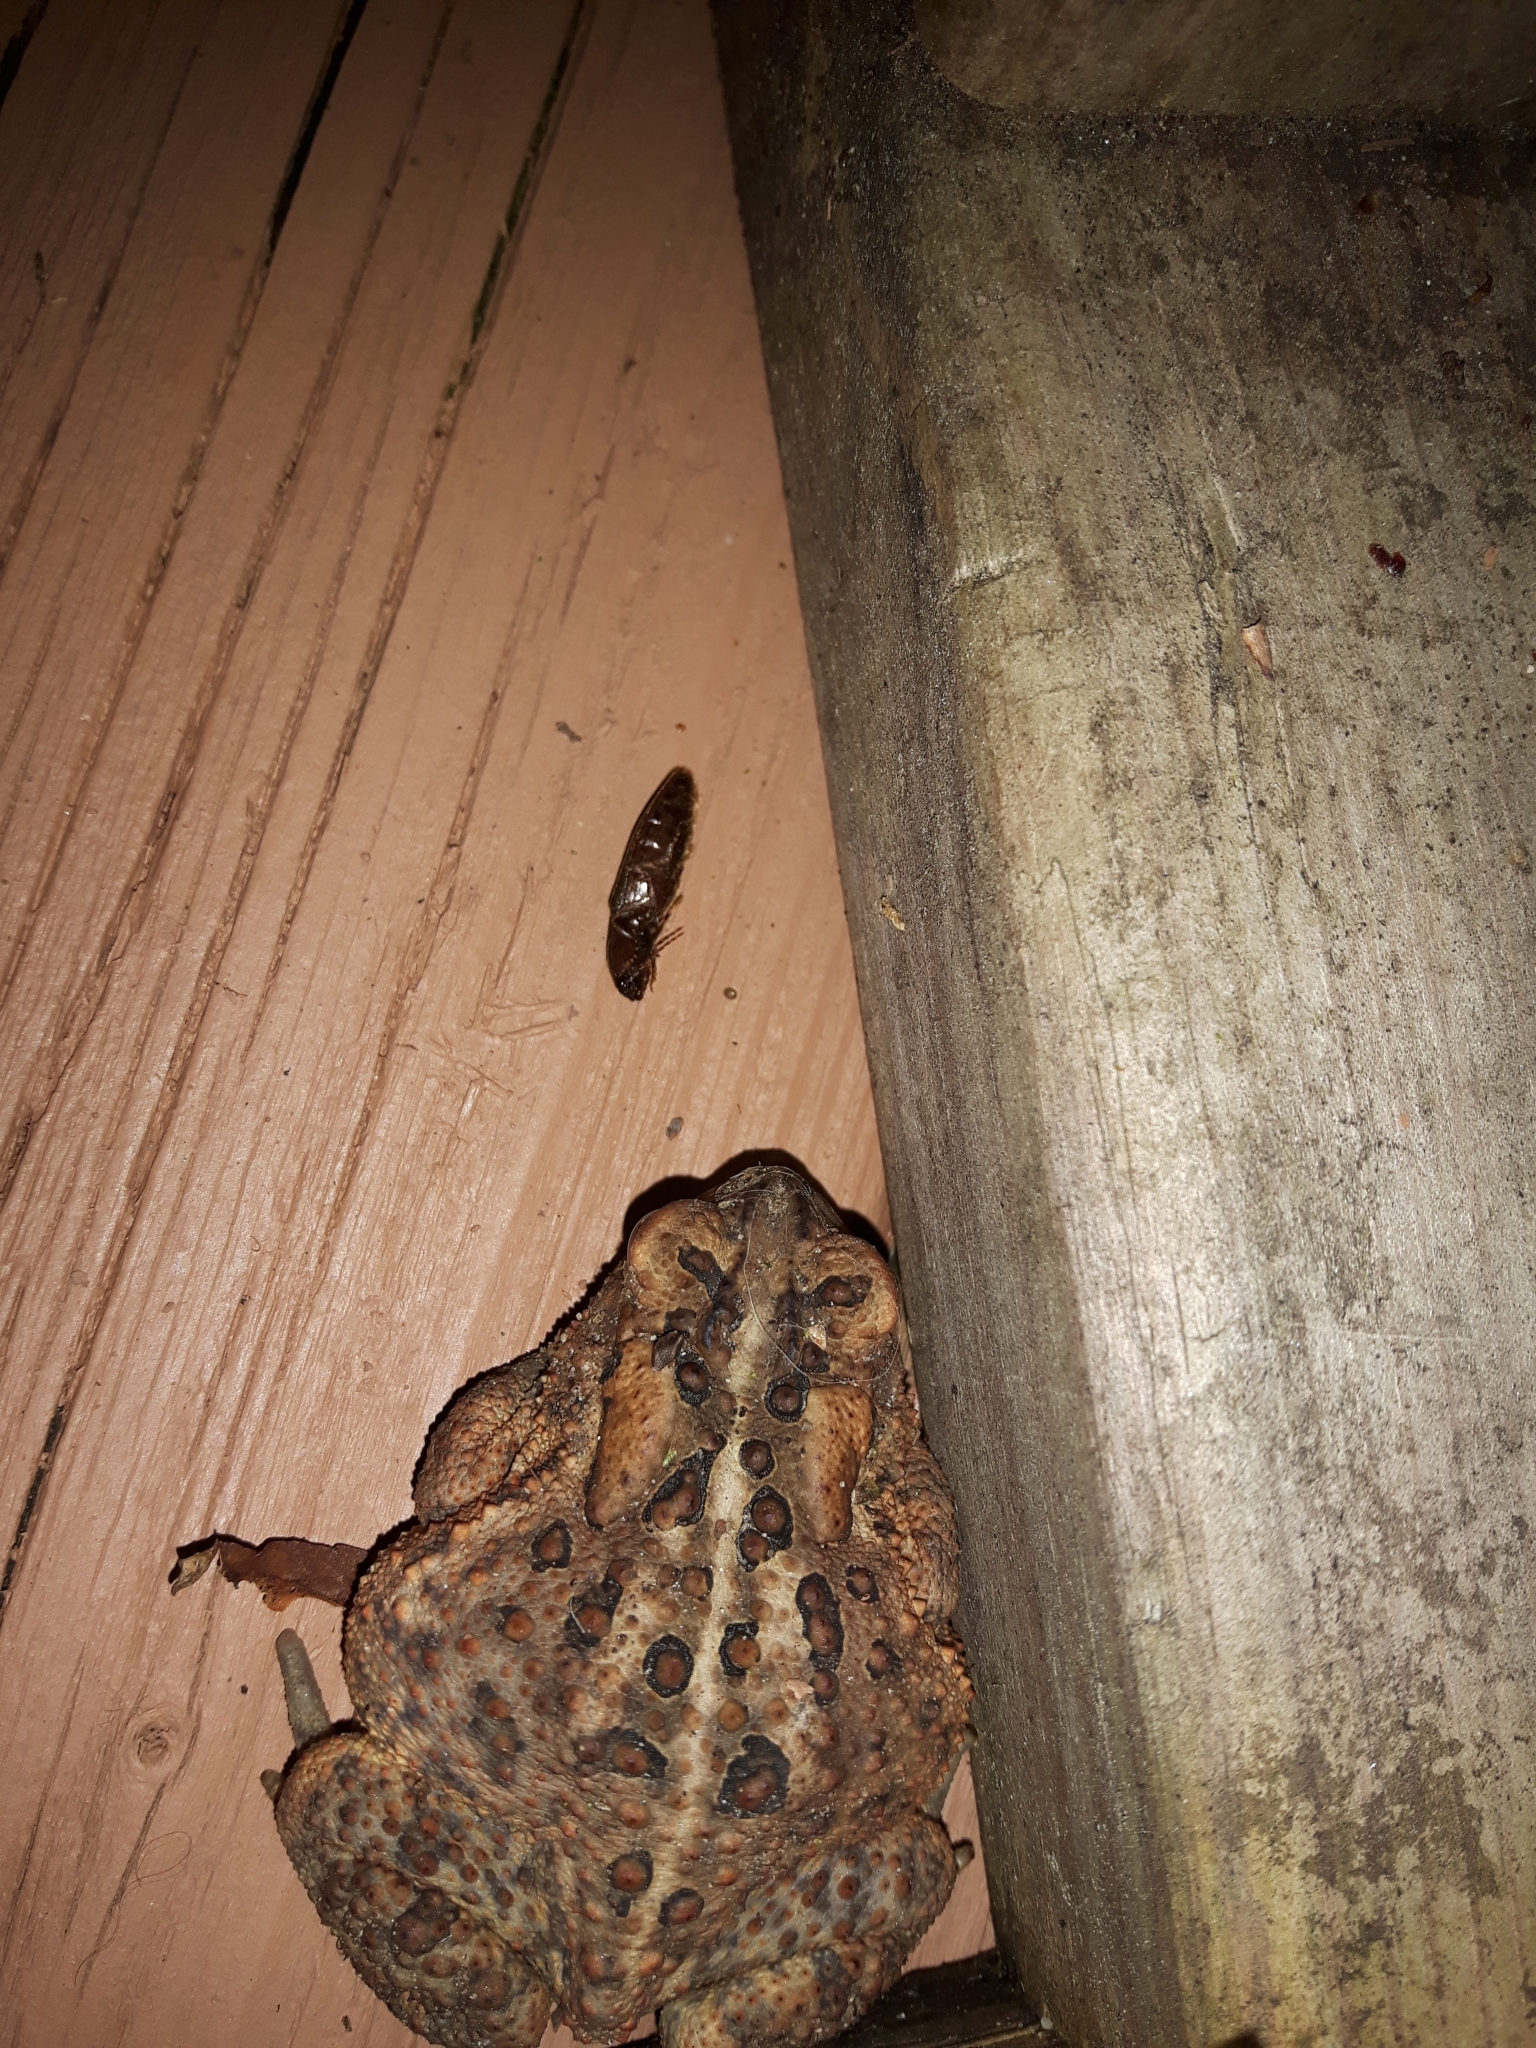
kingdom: Animalia
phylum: Chordata
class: Amphibia
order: Anura
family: Bufonidae
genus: Anaxyrus
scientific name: Anaxyrus americanus
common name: American toad
